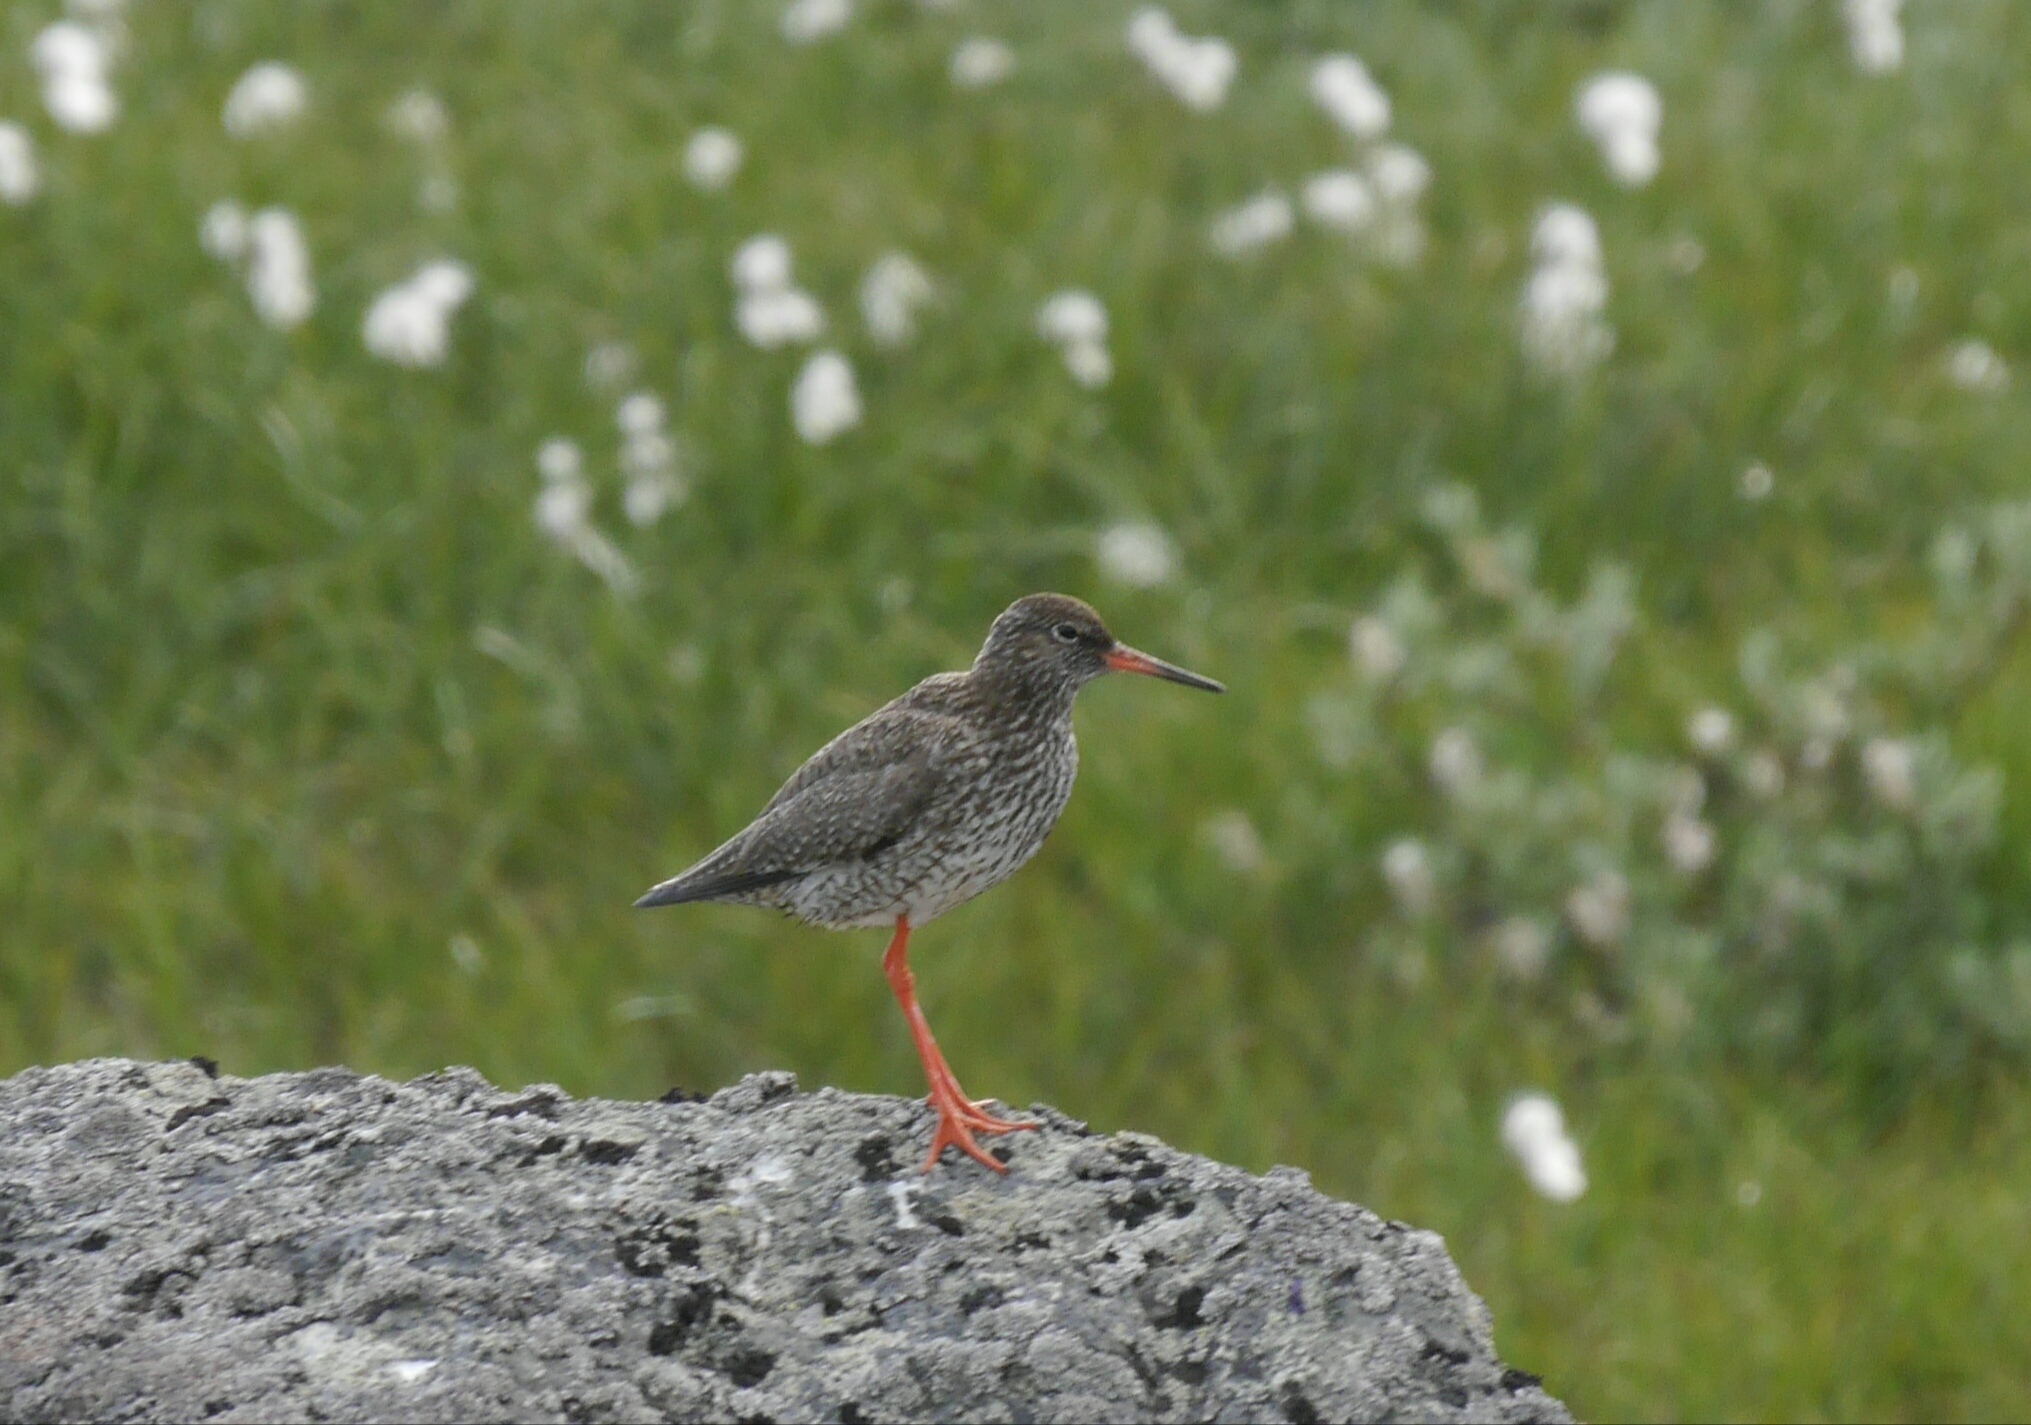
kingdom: Animalia
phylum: Chordata
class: Aves
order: Charadriiformes
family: Scolopacidae
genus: Tringa
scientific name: Tringa totanus
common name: Common redshank
